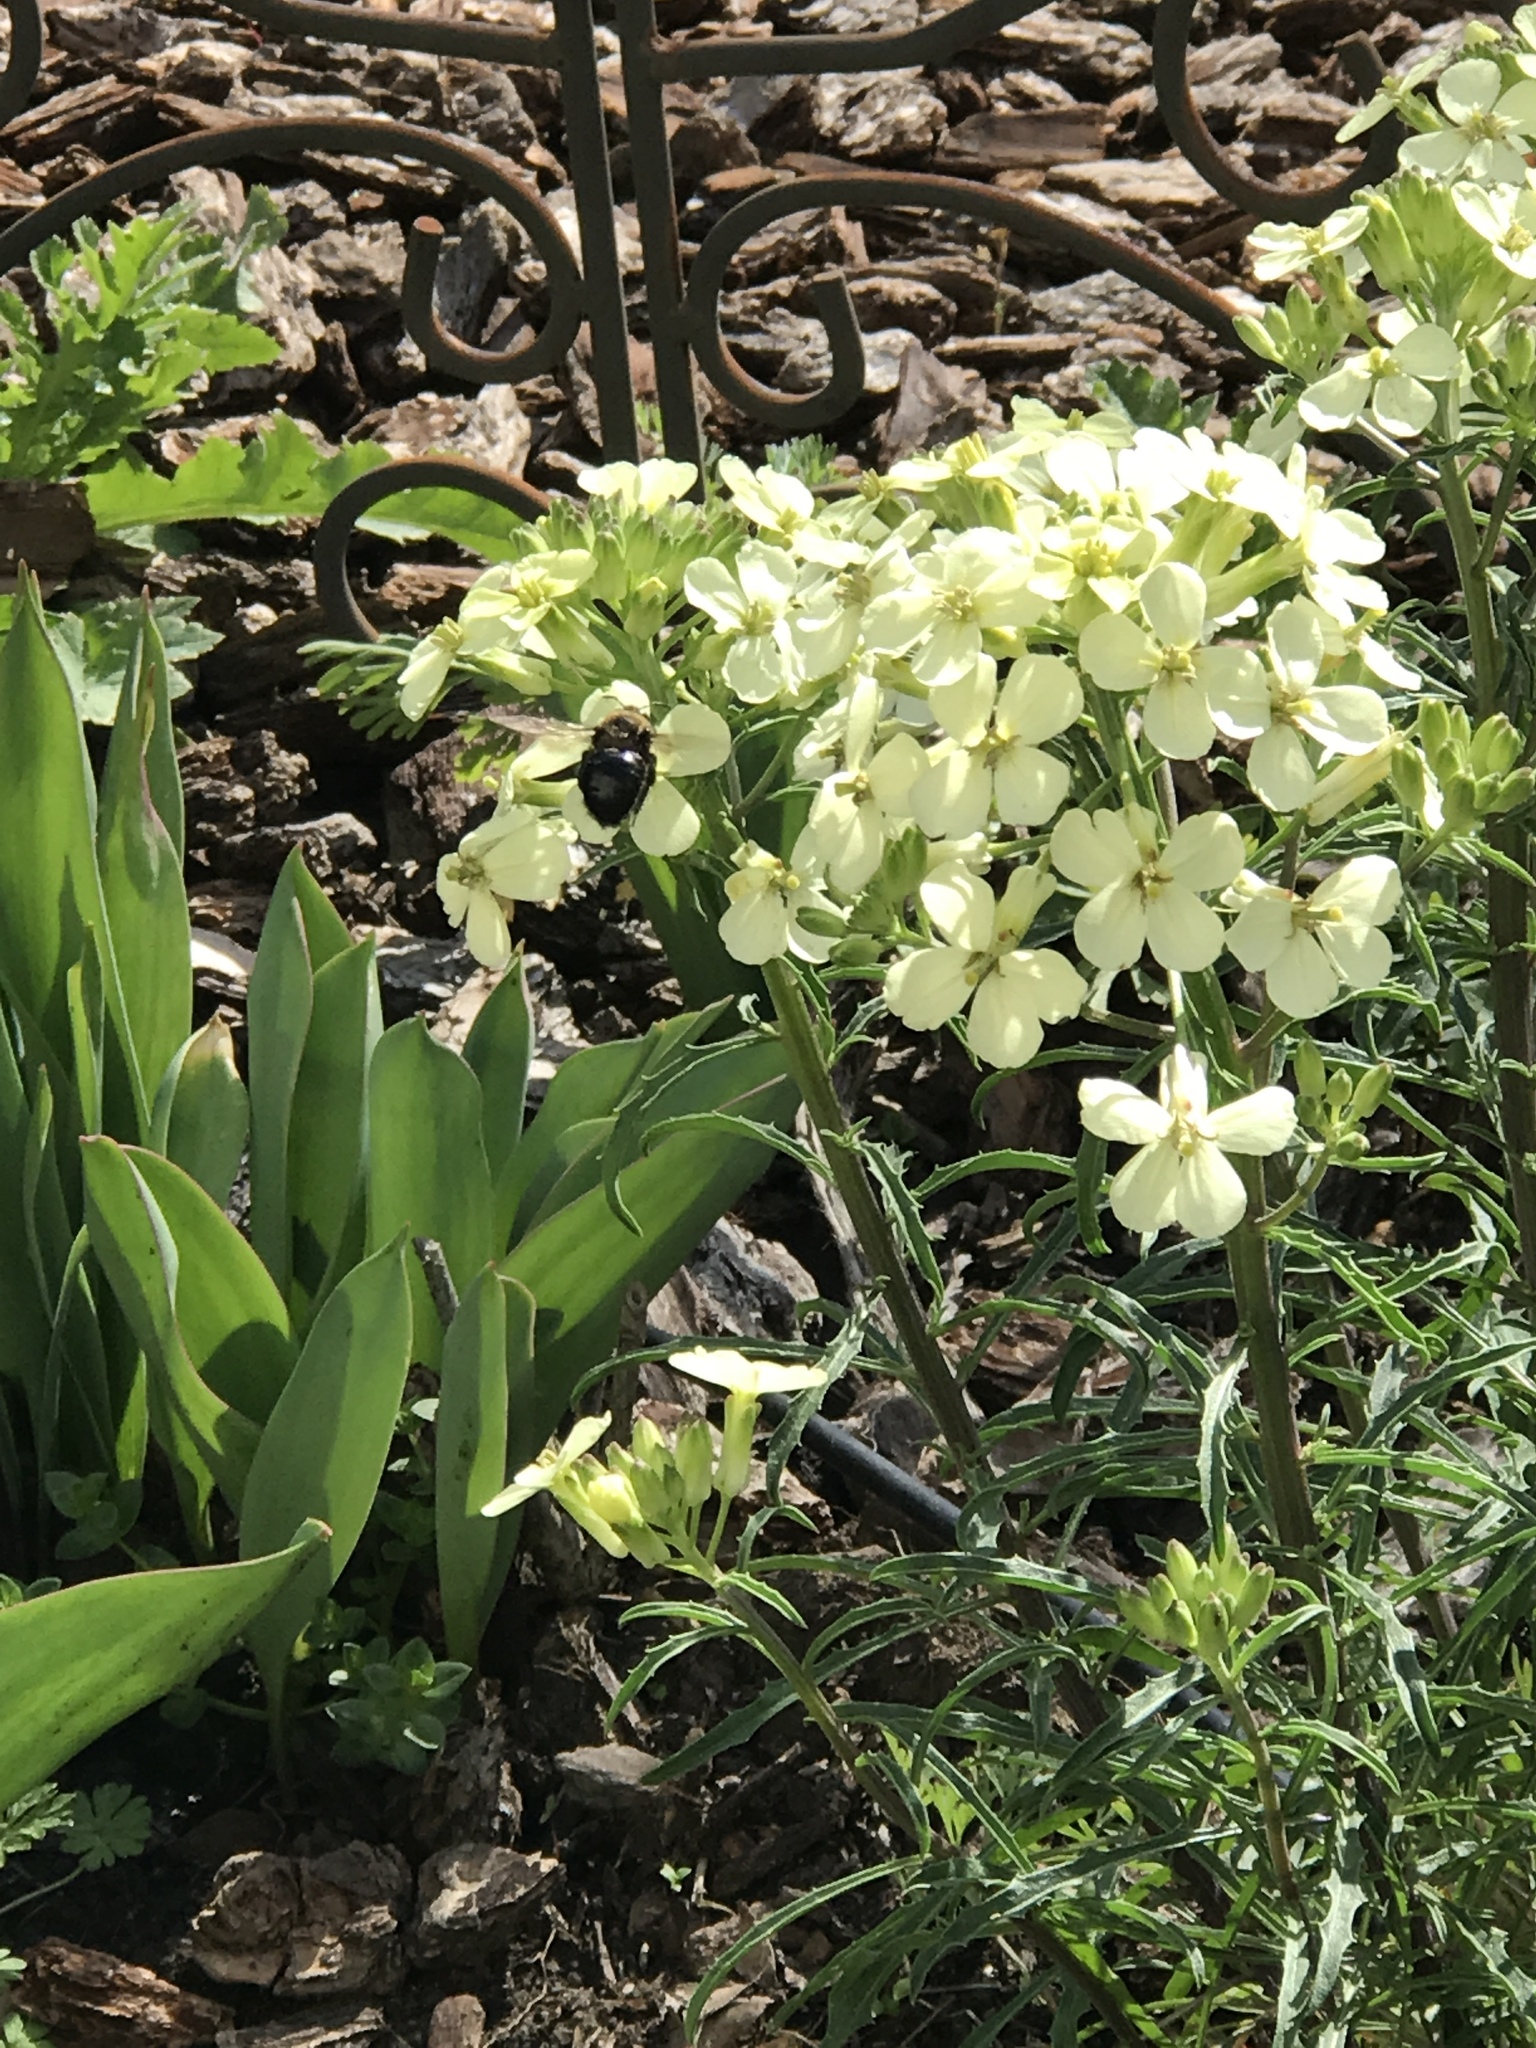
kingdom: Animalia
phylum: Arthropoda
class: Insecta
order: Hymenoptera
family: Apidae
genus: Xylocopa
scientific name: Xylocopa tabaniformis
